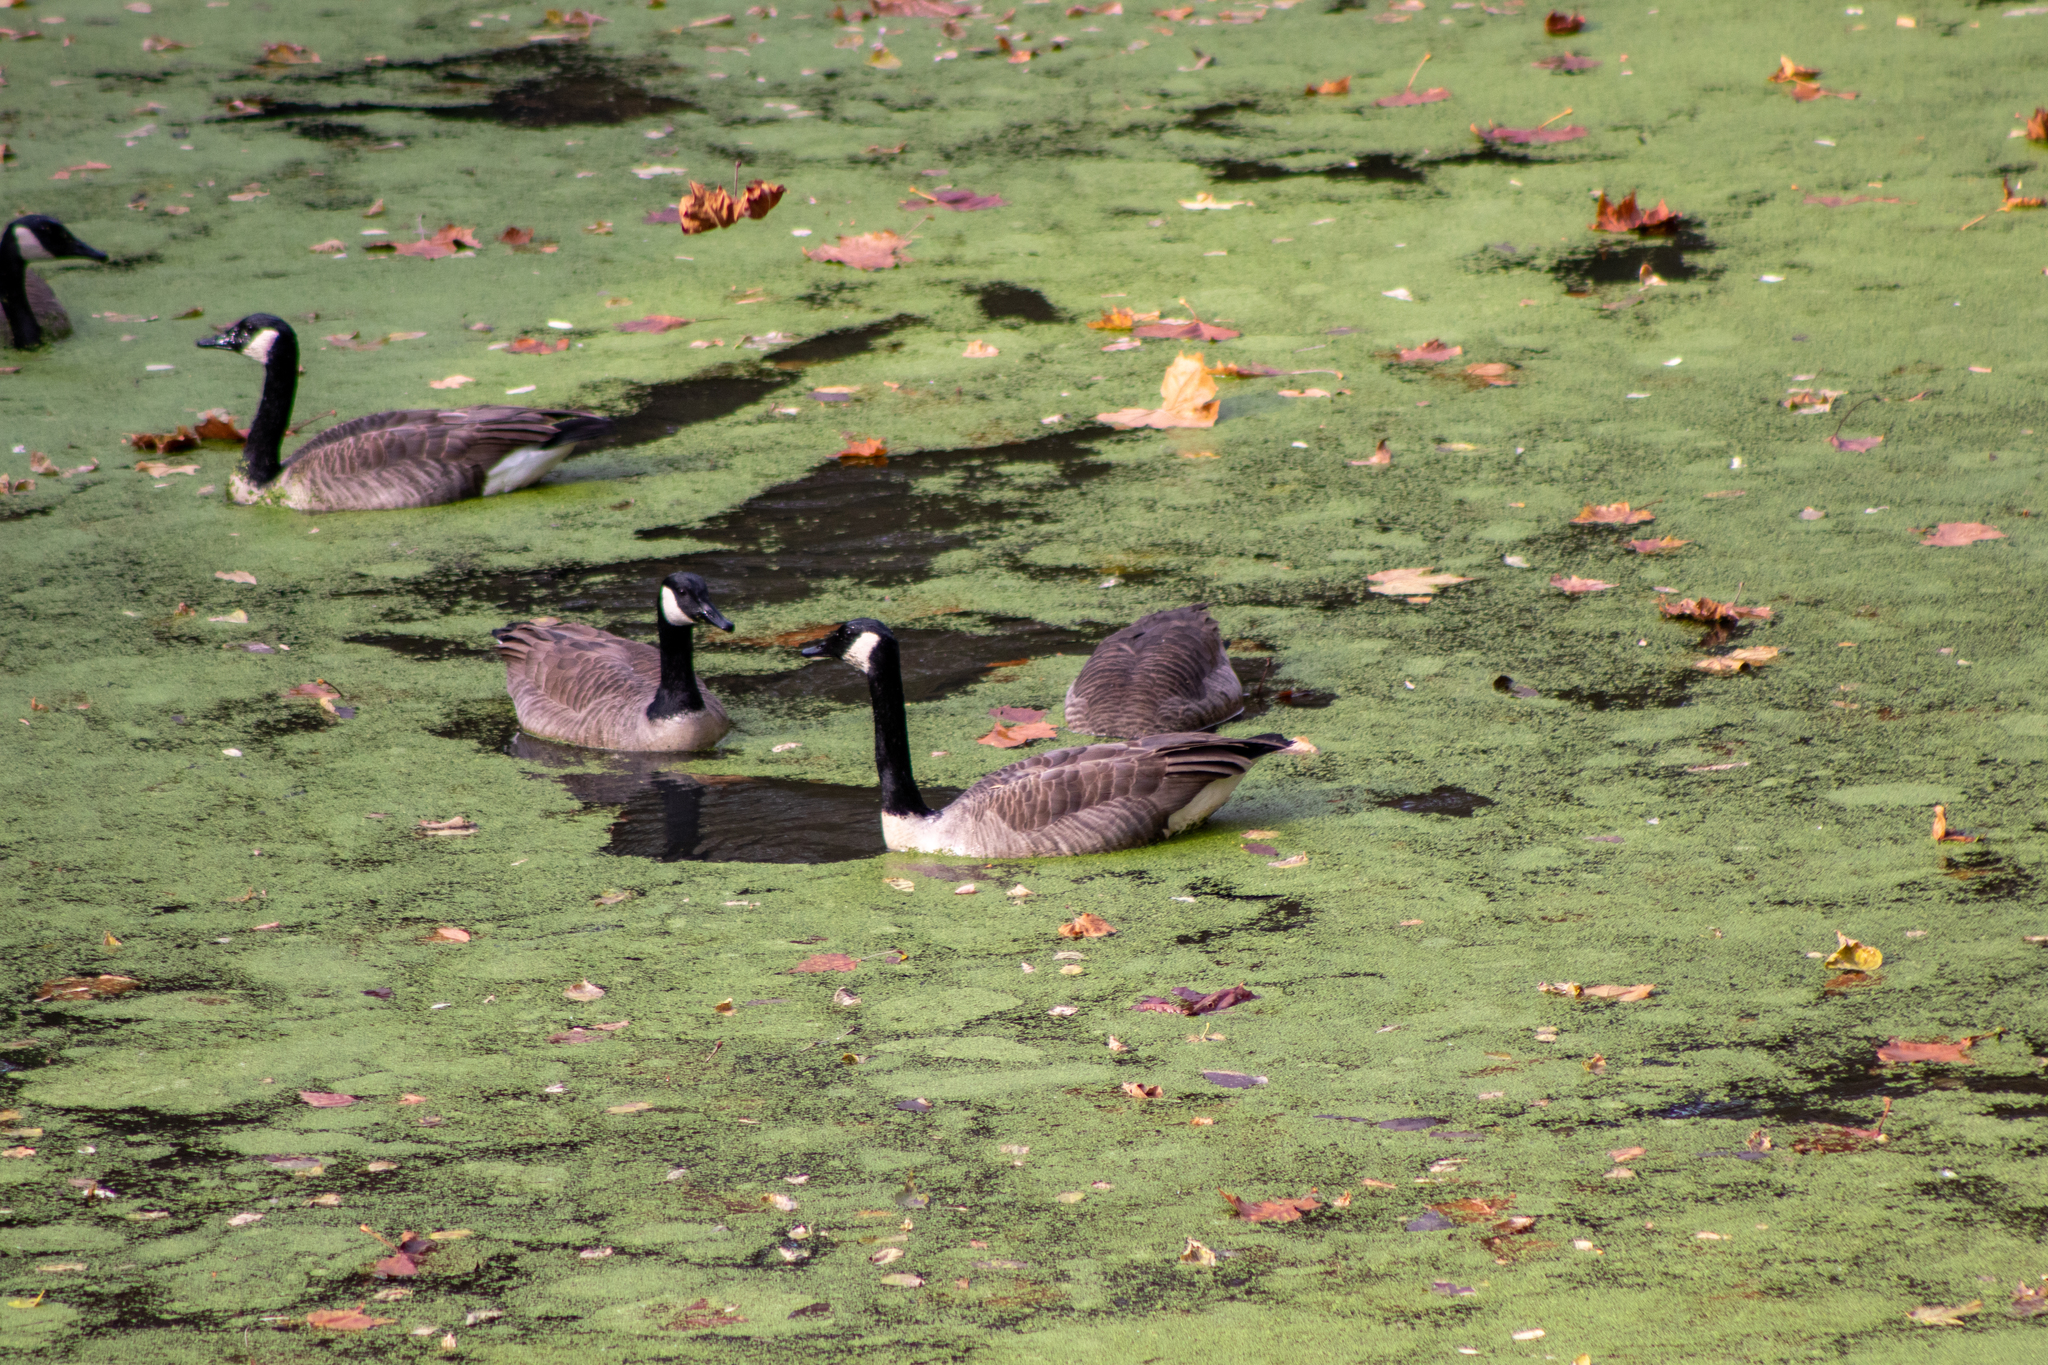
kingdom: Animalia
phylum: Chordata
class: Aves
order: Anseriformes
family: Anatidae
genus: Branta
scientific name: Branta canadensis
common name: Canada goose
